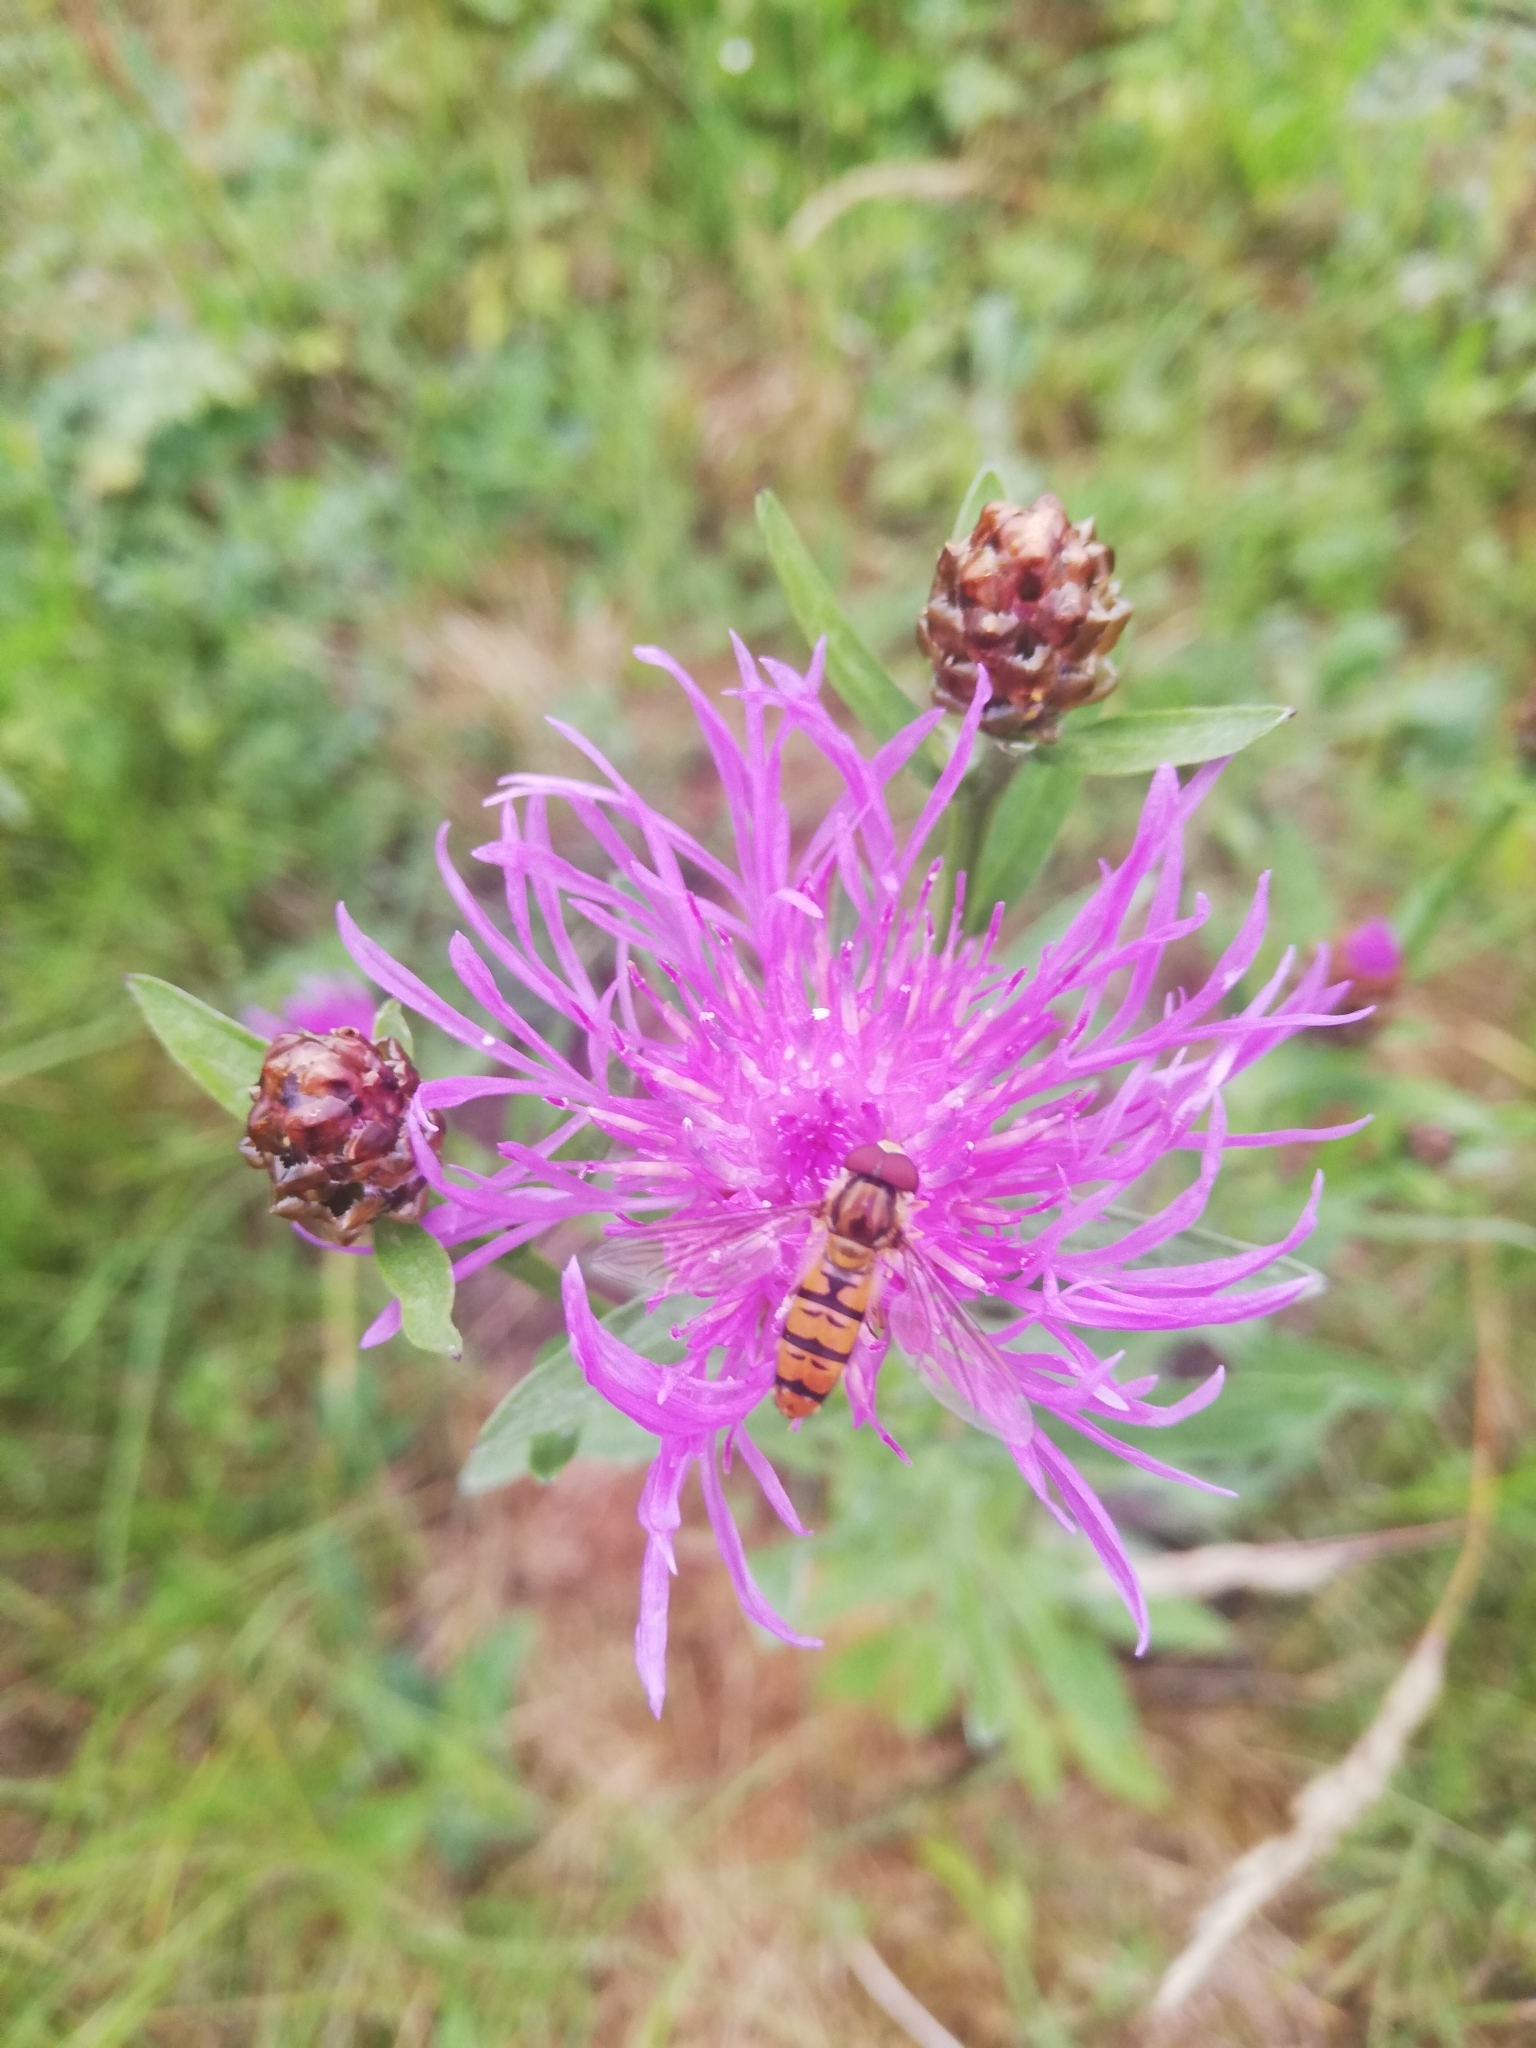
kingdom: Animalia
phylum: Arthropoda
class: Insecta
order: Diptera
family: Syrphidae
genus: Episyrphus
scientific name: Episyrphus balteatus
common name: Marmalade hoverfly
